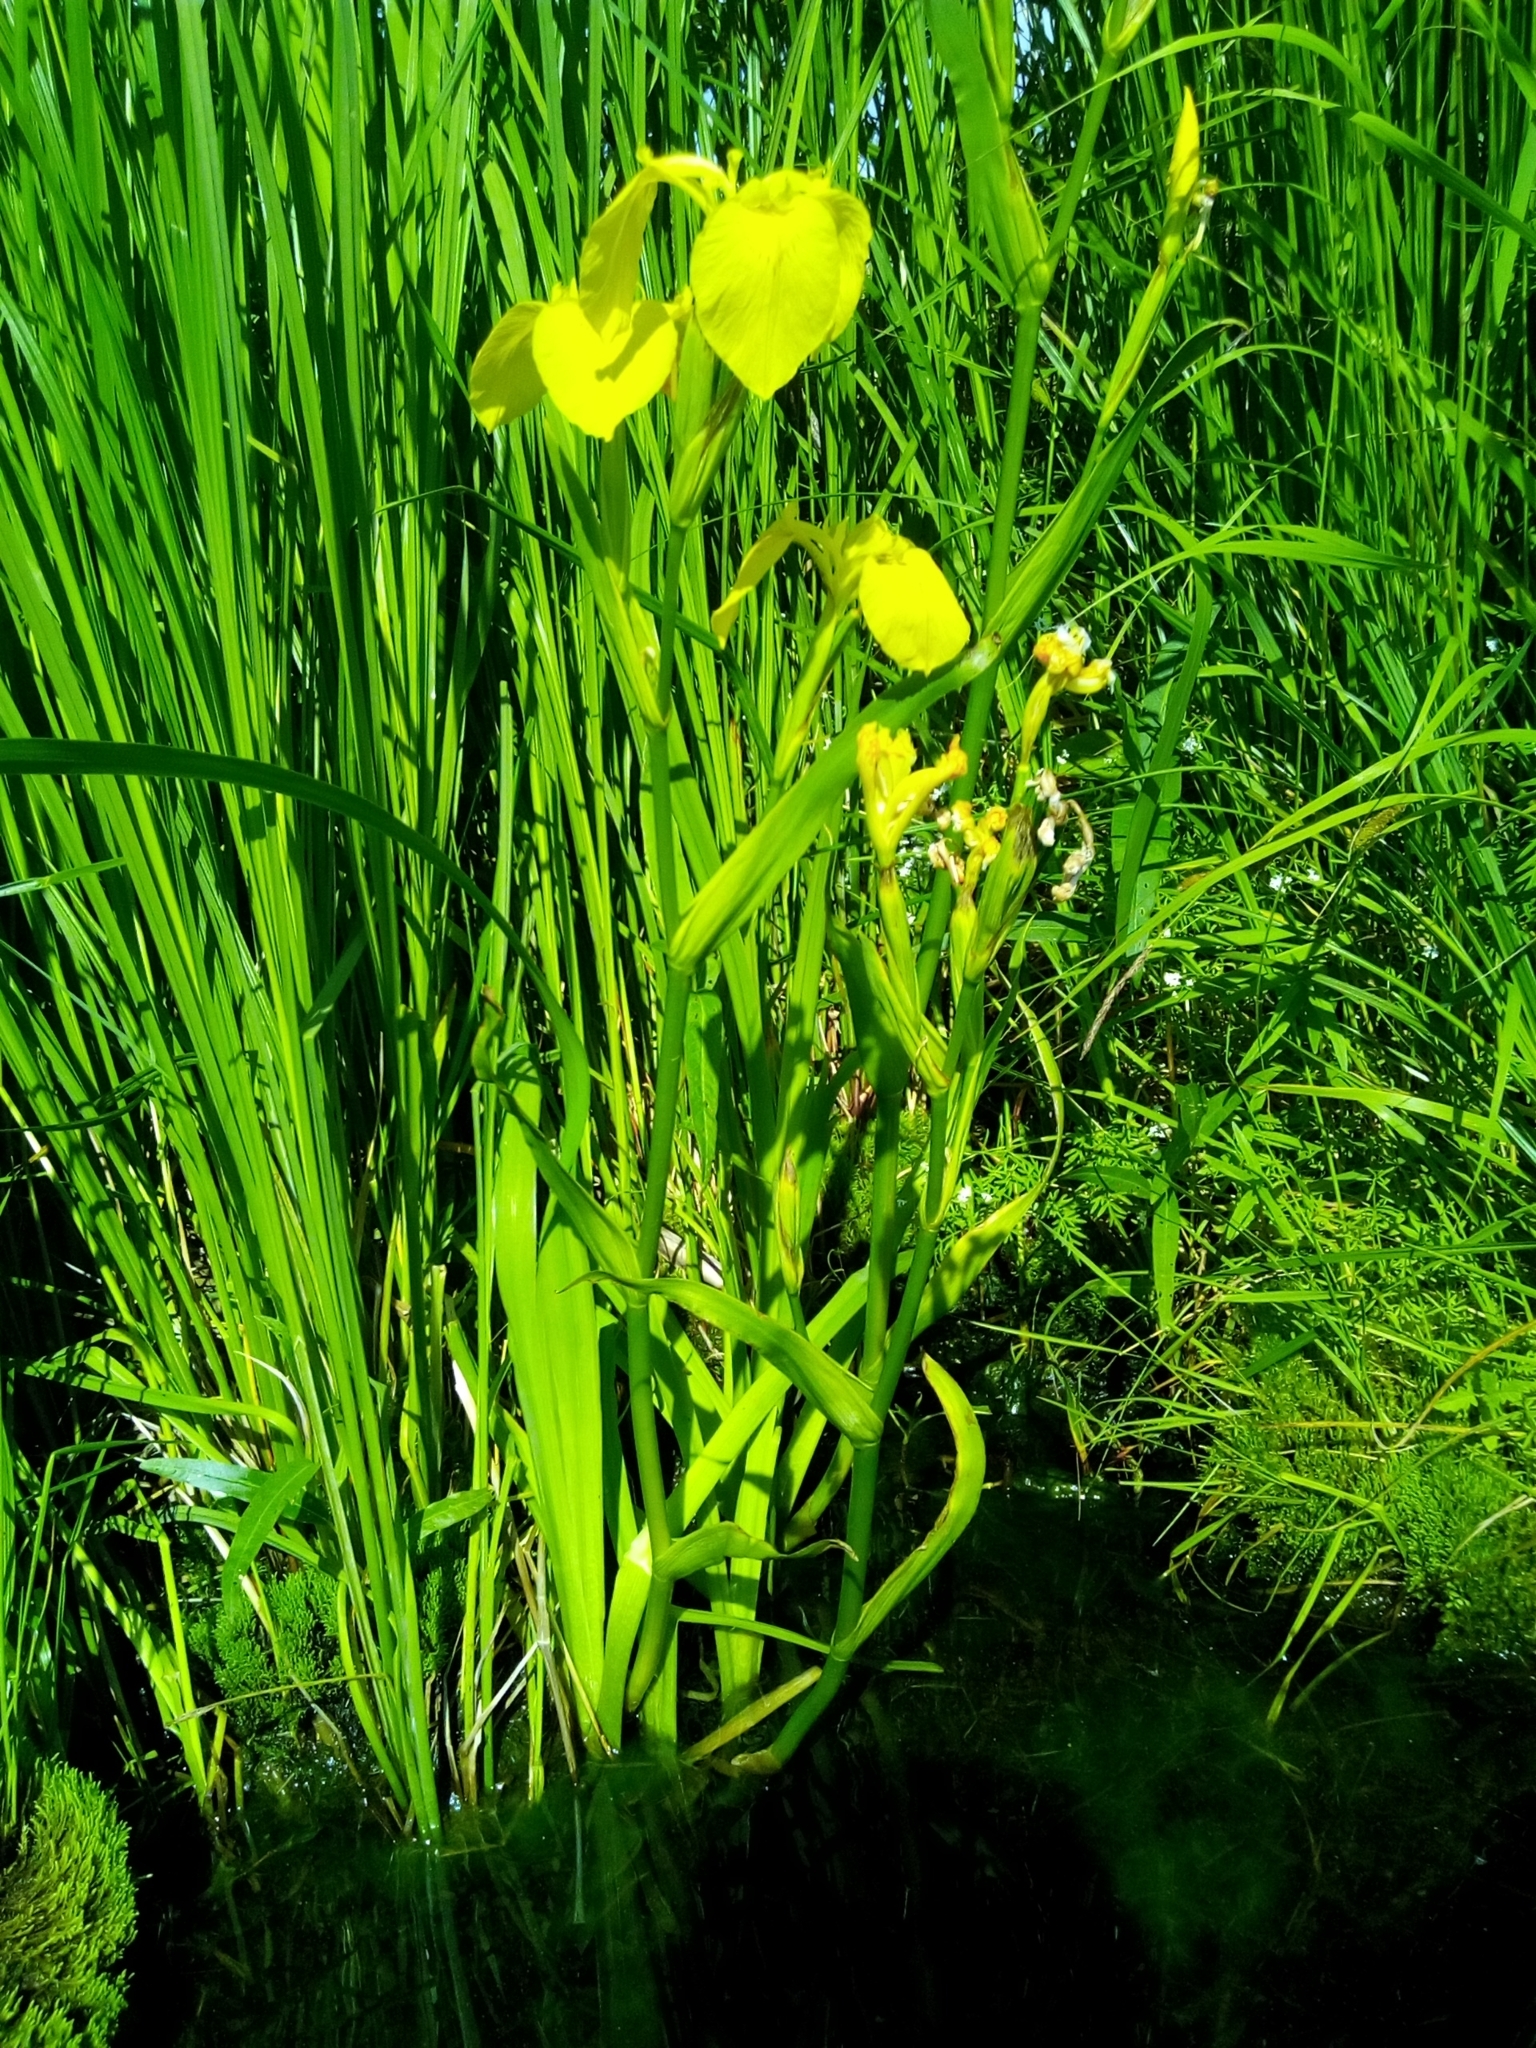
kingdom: Plantae
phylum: Tracheophyta
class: Liliopsida
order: Asparagales
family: Iridaceae
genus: Iris
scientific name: Iris pseudacorus
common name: Yellow flag
